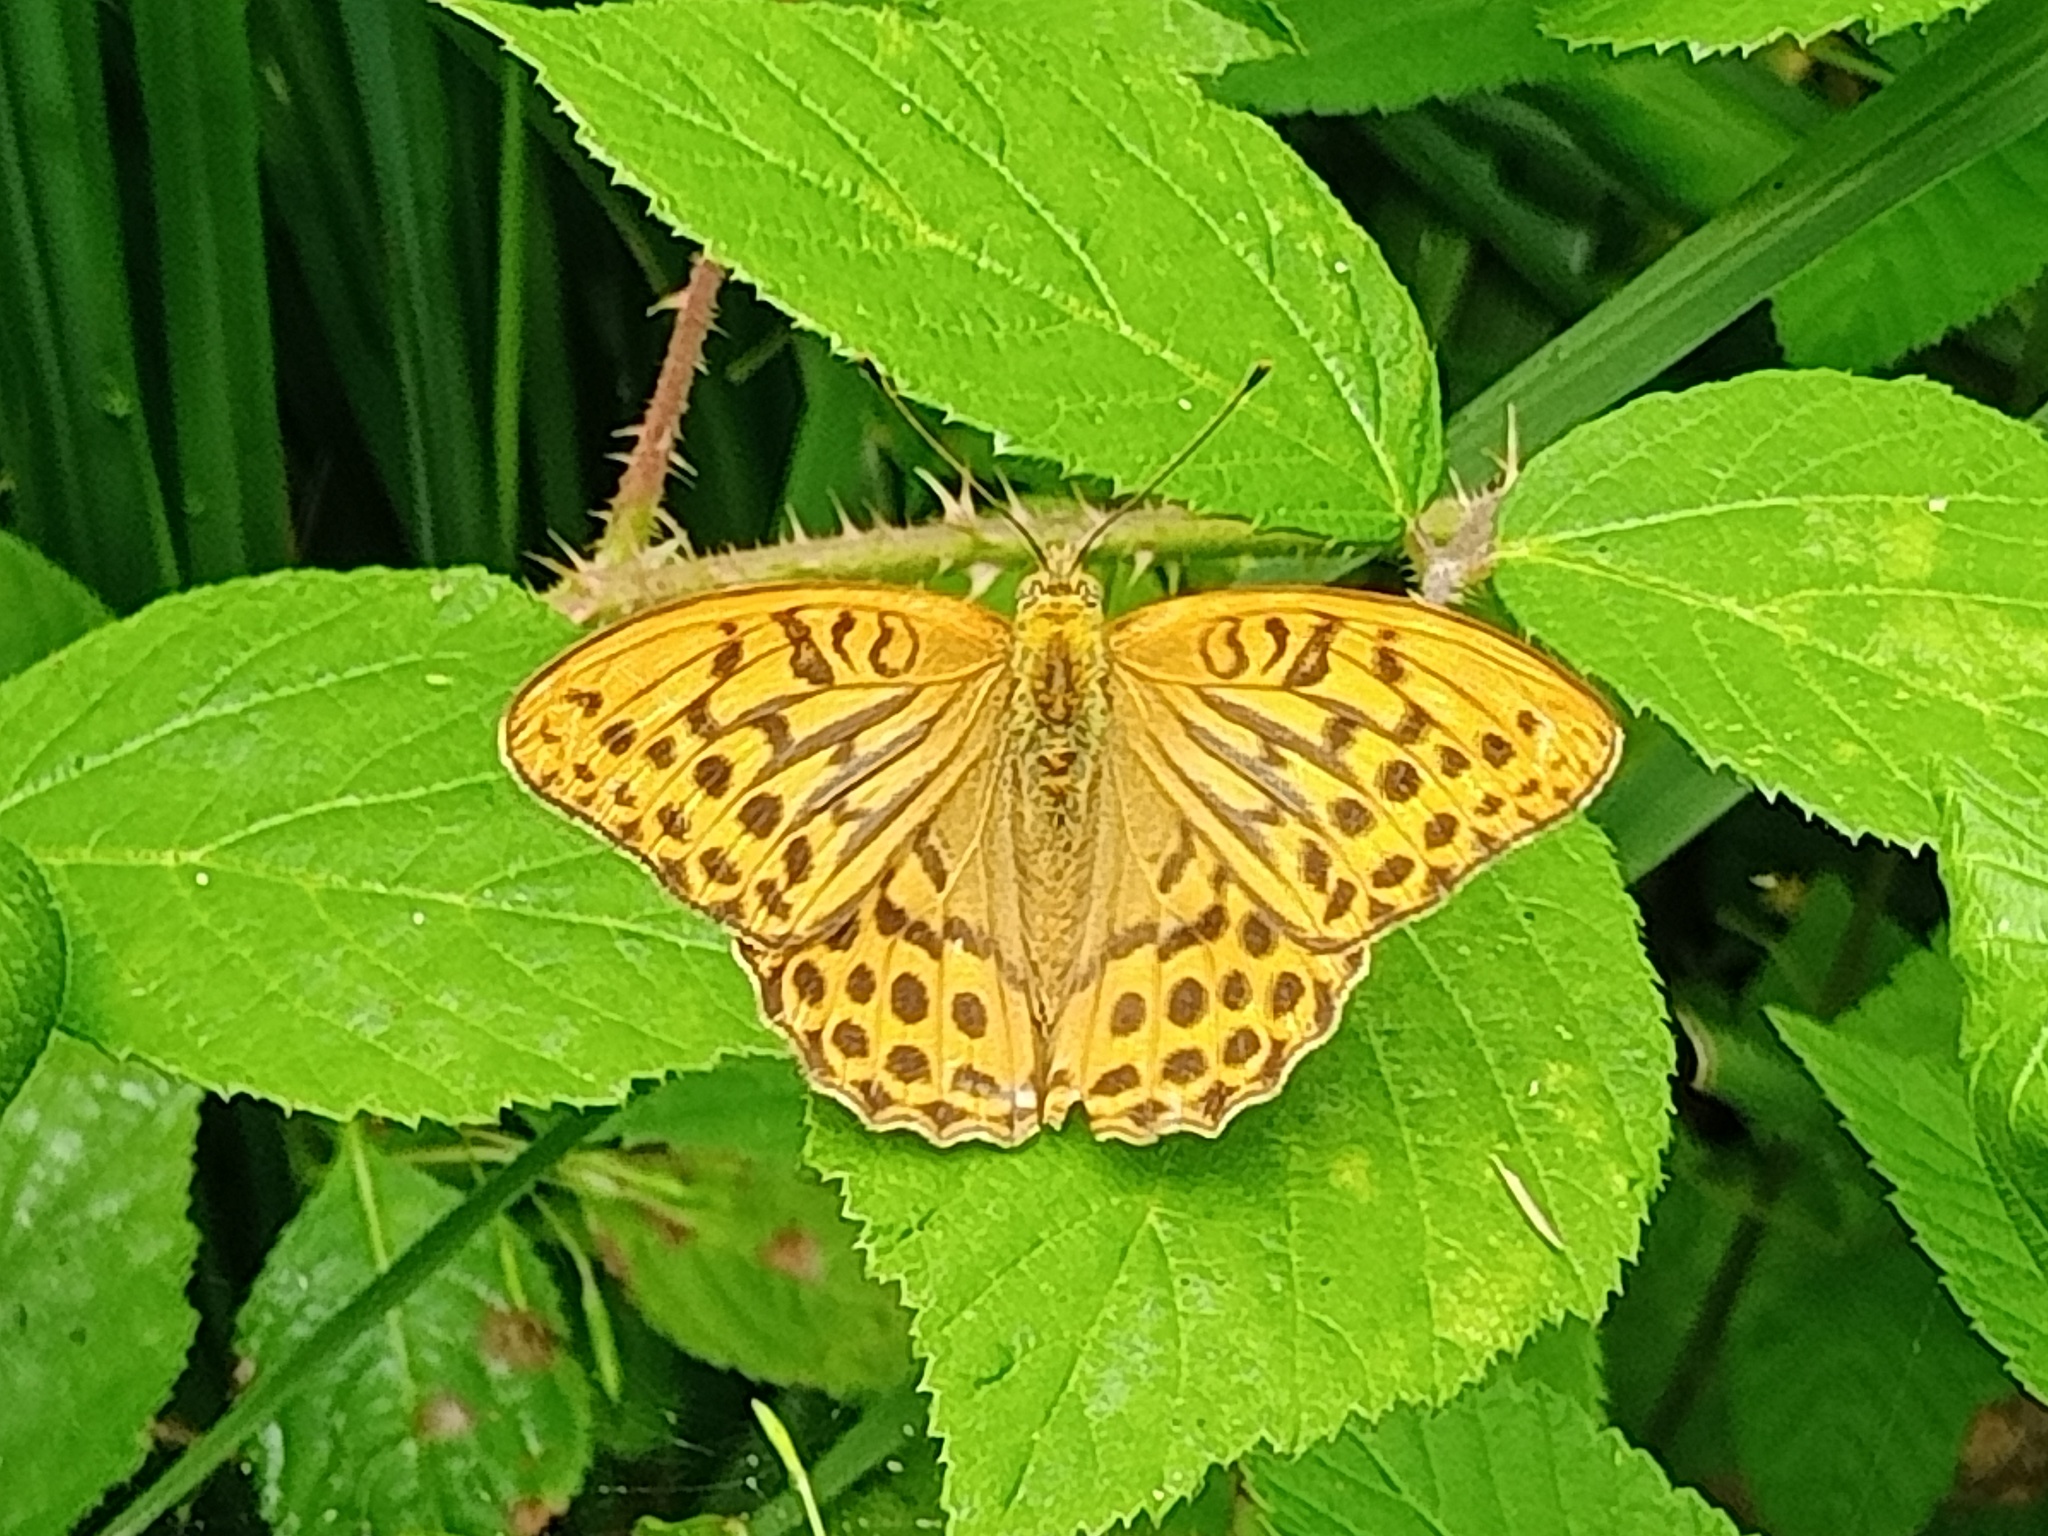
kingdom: Animalia
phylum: Arthropoda
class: Insecta
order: Lepidoptera
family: Nymphalidae
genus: Argynnis
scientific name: Argynnis paphia
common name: Silver-washed fritillary
